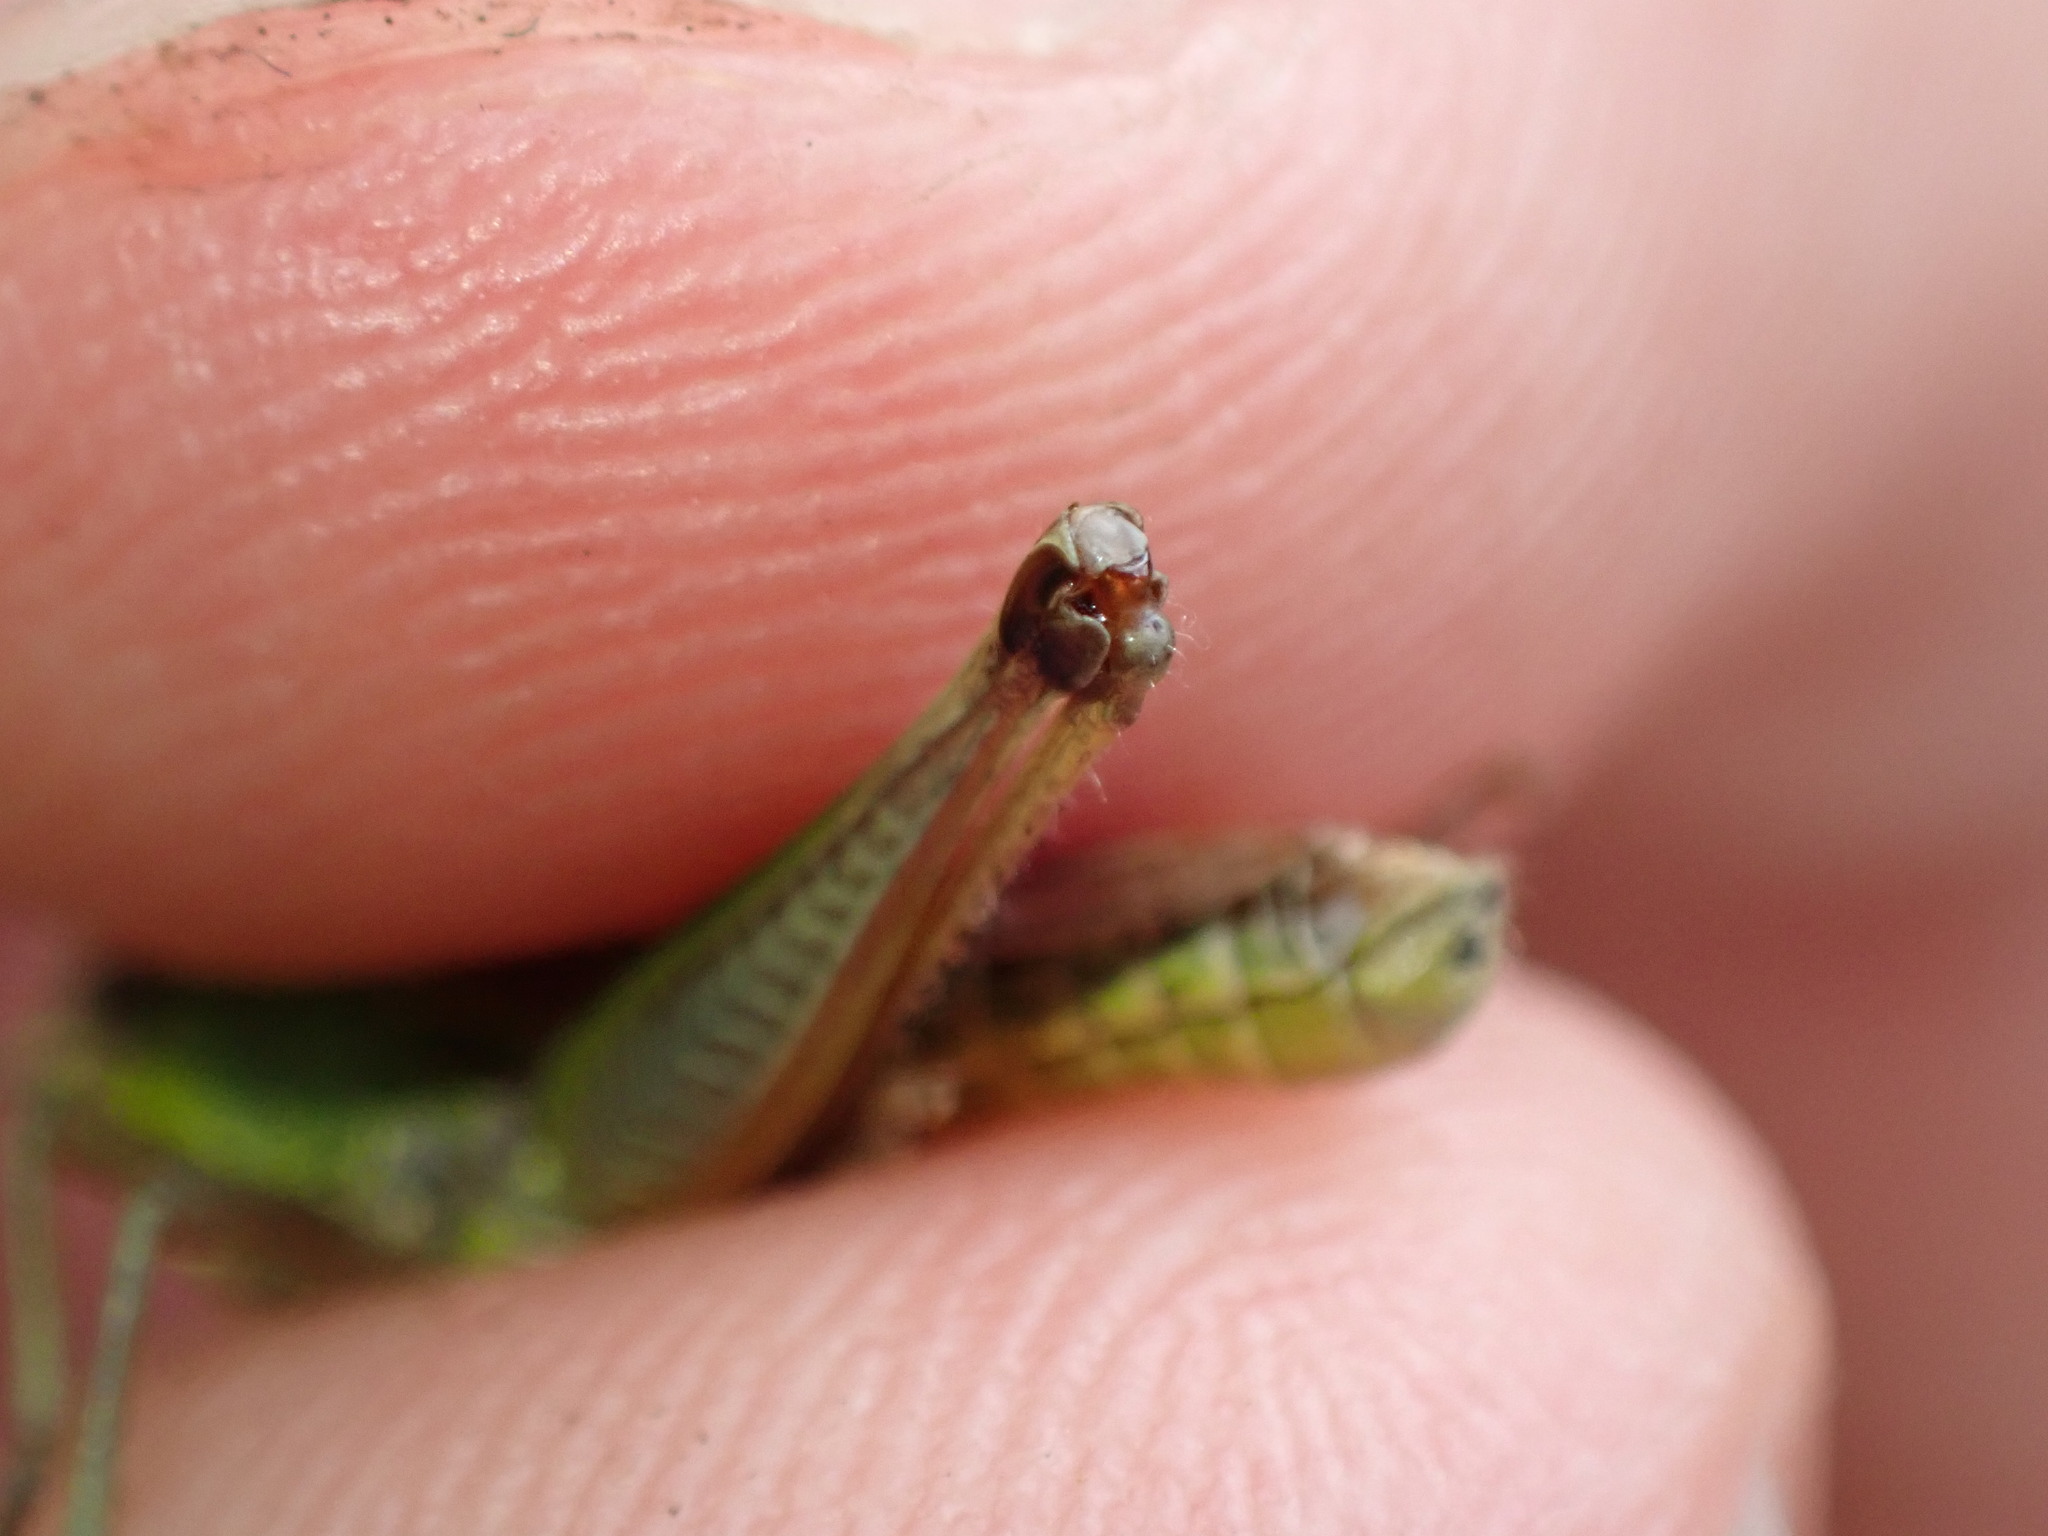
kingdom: Animalia
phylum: Arthropoda
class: Insecta
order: Orthoptera
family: Acrididae
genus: Pseudochorthippus
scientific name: Pseudochorthippus parallelus
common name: Meadow grasshopper
